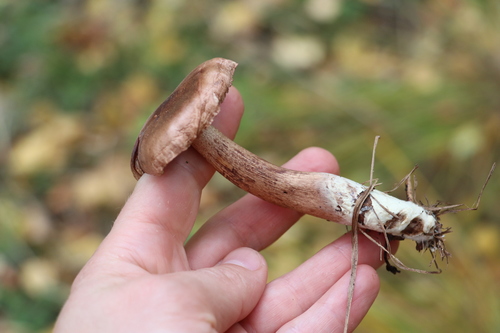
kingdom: Fungi
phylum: Basidiomycota
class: Agaricomycetes
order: Agaricales
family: Tricholomataceae
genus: Tricholoma
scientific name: Tricholoma fulvum
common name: Birch knight
